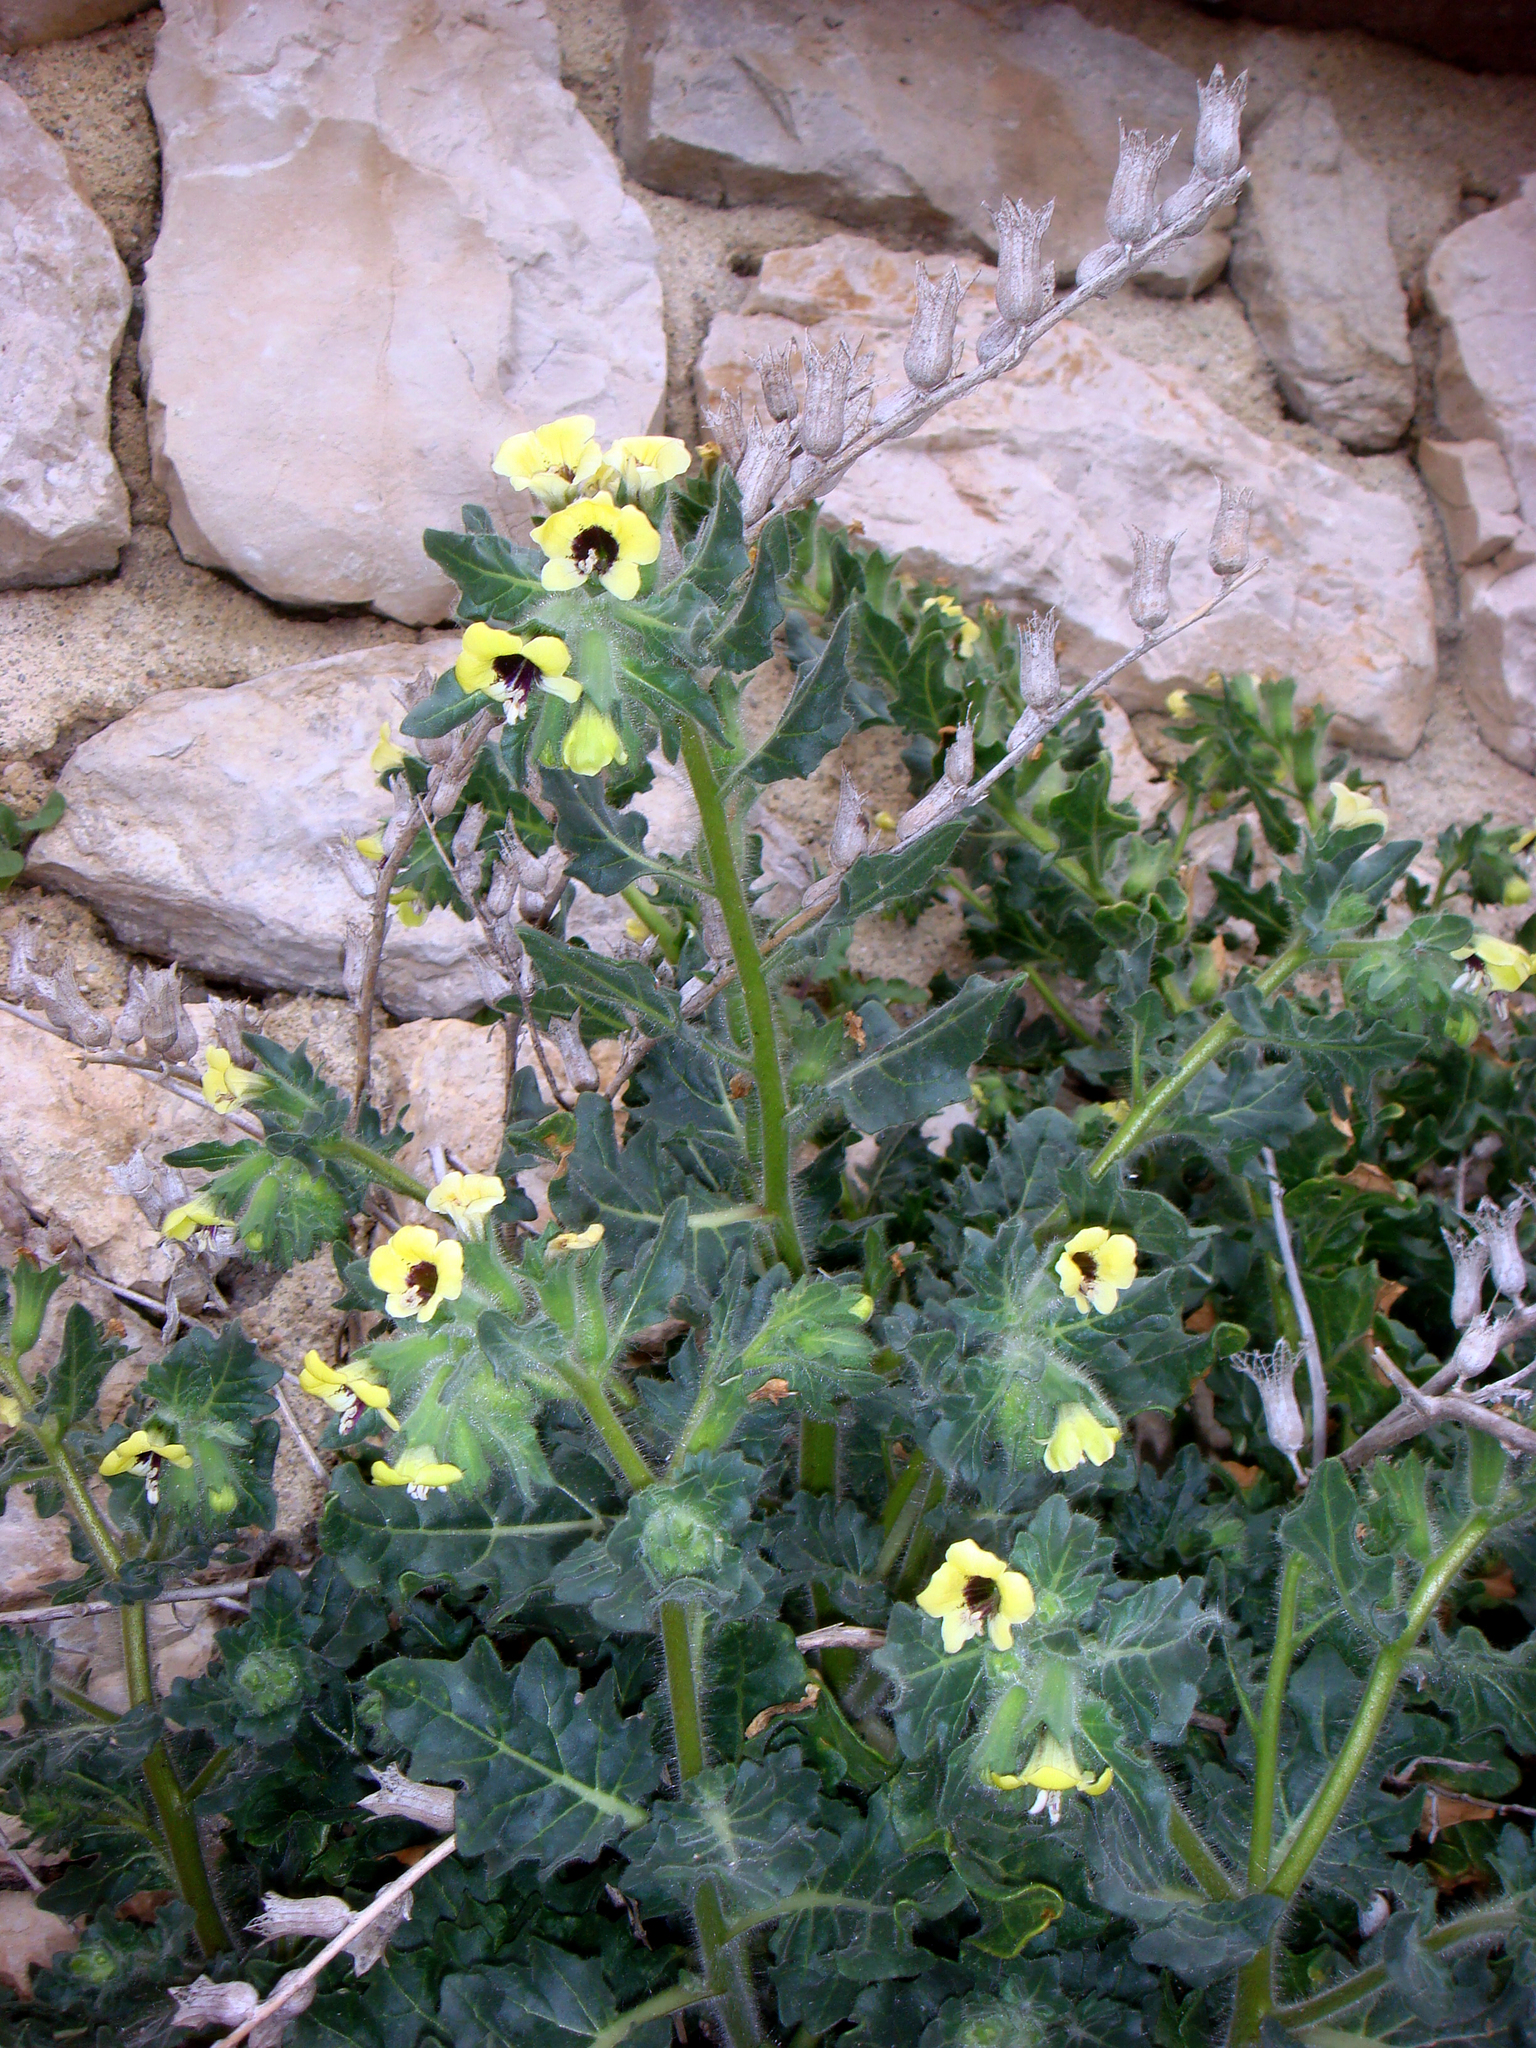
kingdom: Plantae
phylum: Tracheophyta
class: Magnoliopsida
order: Solanales
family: Solanaceae
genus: Hyoscyamus
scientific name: Hyoscyamus albus
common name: White henbane
